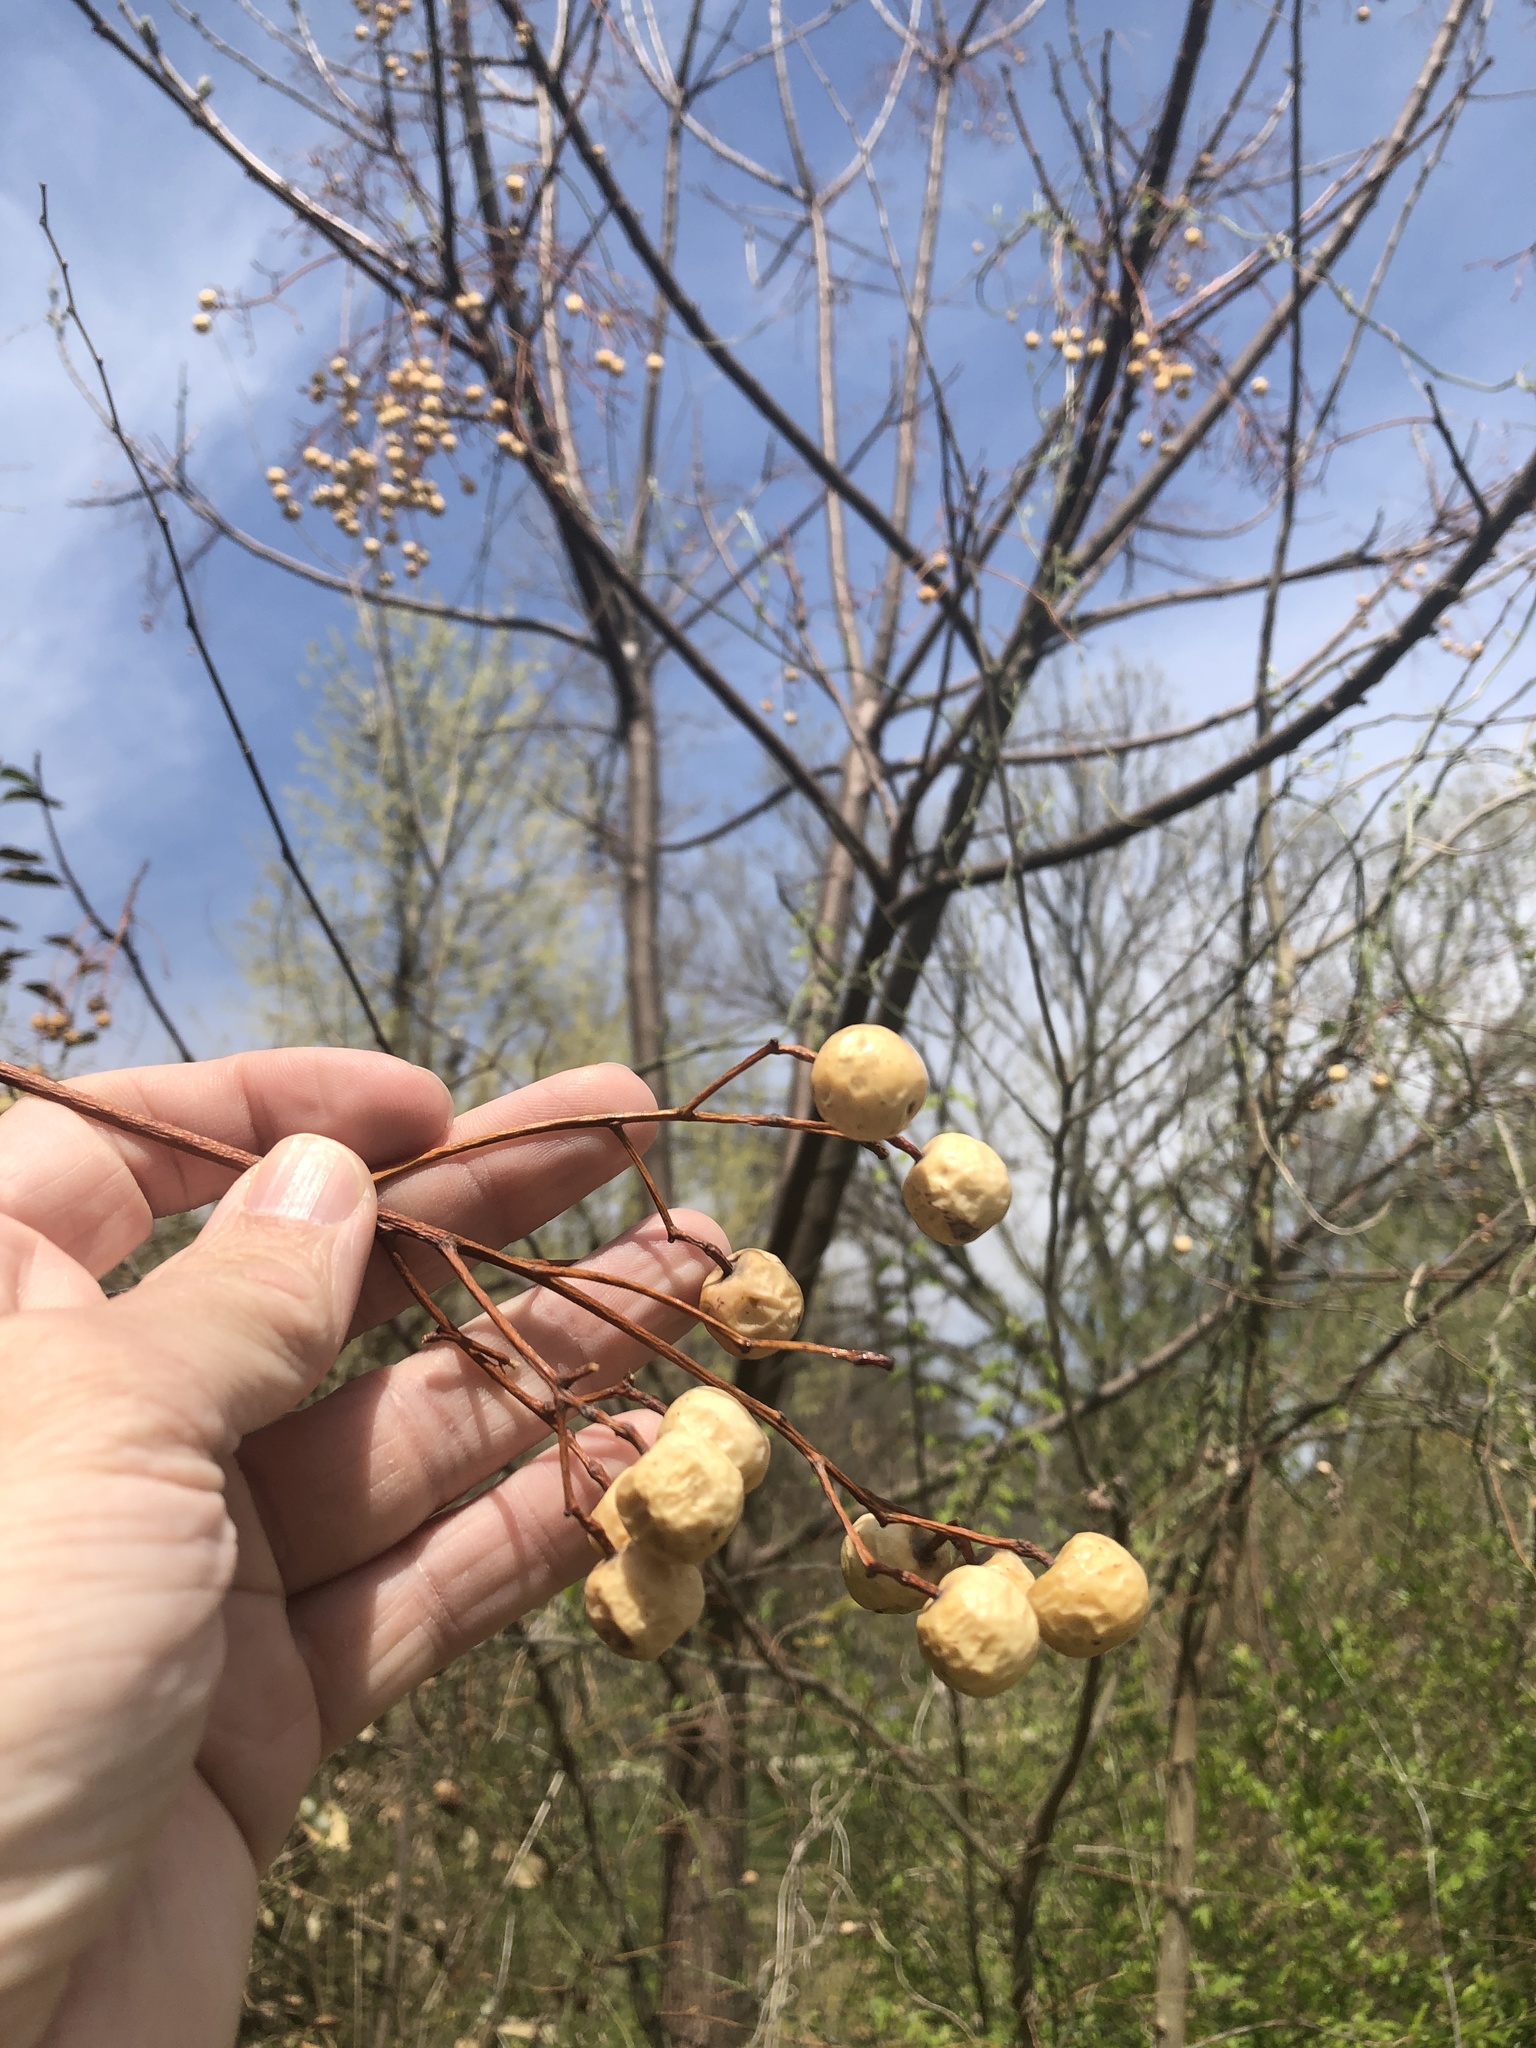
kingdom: Plantae
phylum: Tracheophyta
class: Magnoliopsida
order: Sapindales
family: Meliaceae
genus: Melia
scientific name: Melia azedarach
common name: Chinaberrytree
